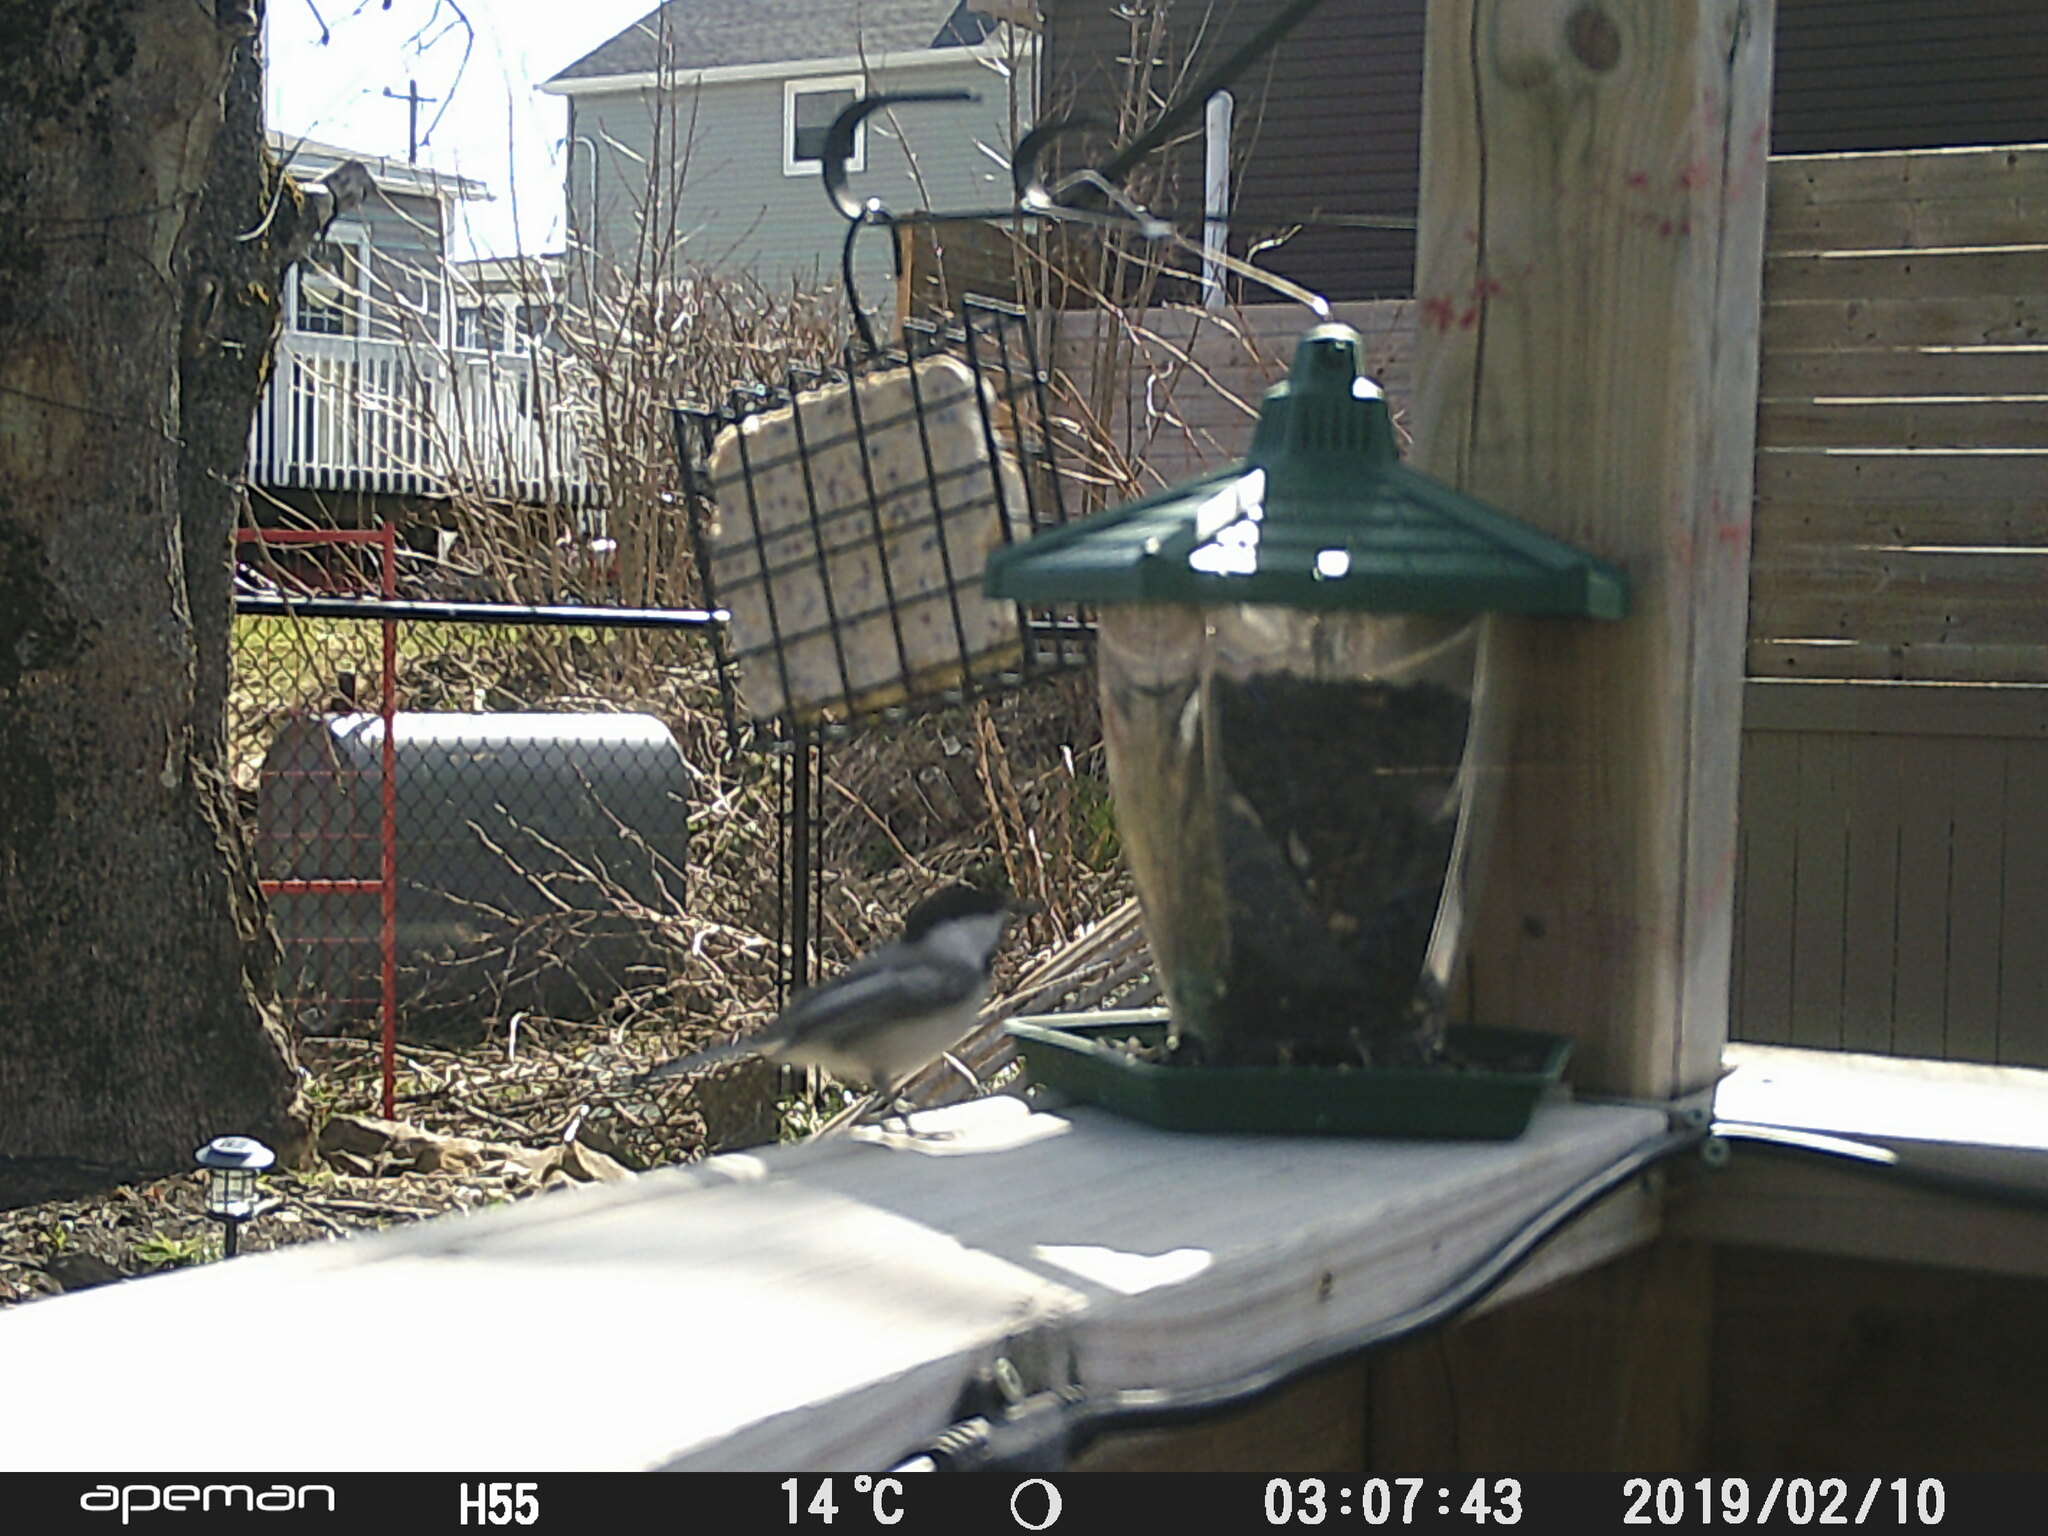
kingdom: Animalia
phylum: Chordata
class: Aves
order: Passeriformes
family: Paridae
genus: Poecile
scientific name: Poecile atricapillus
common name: Black-capped chickadee
